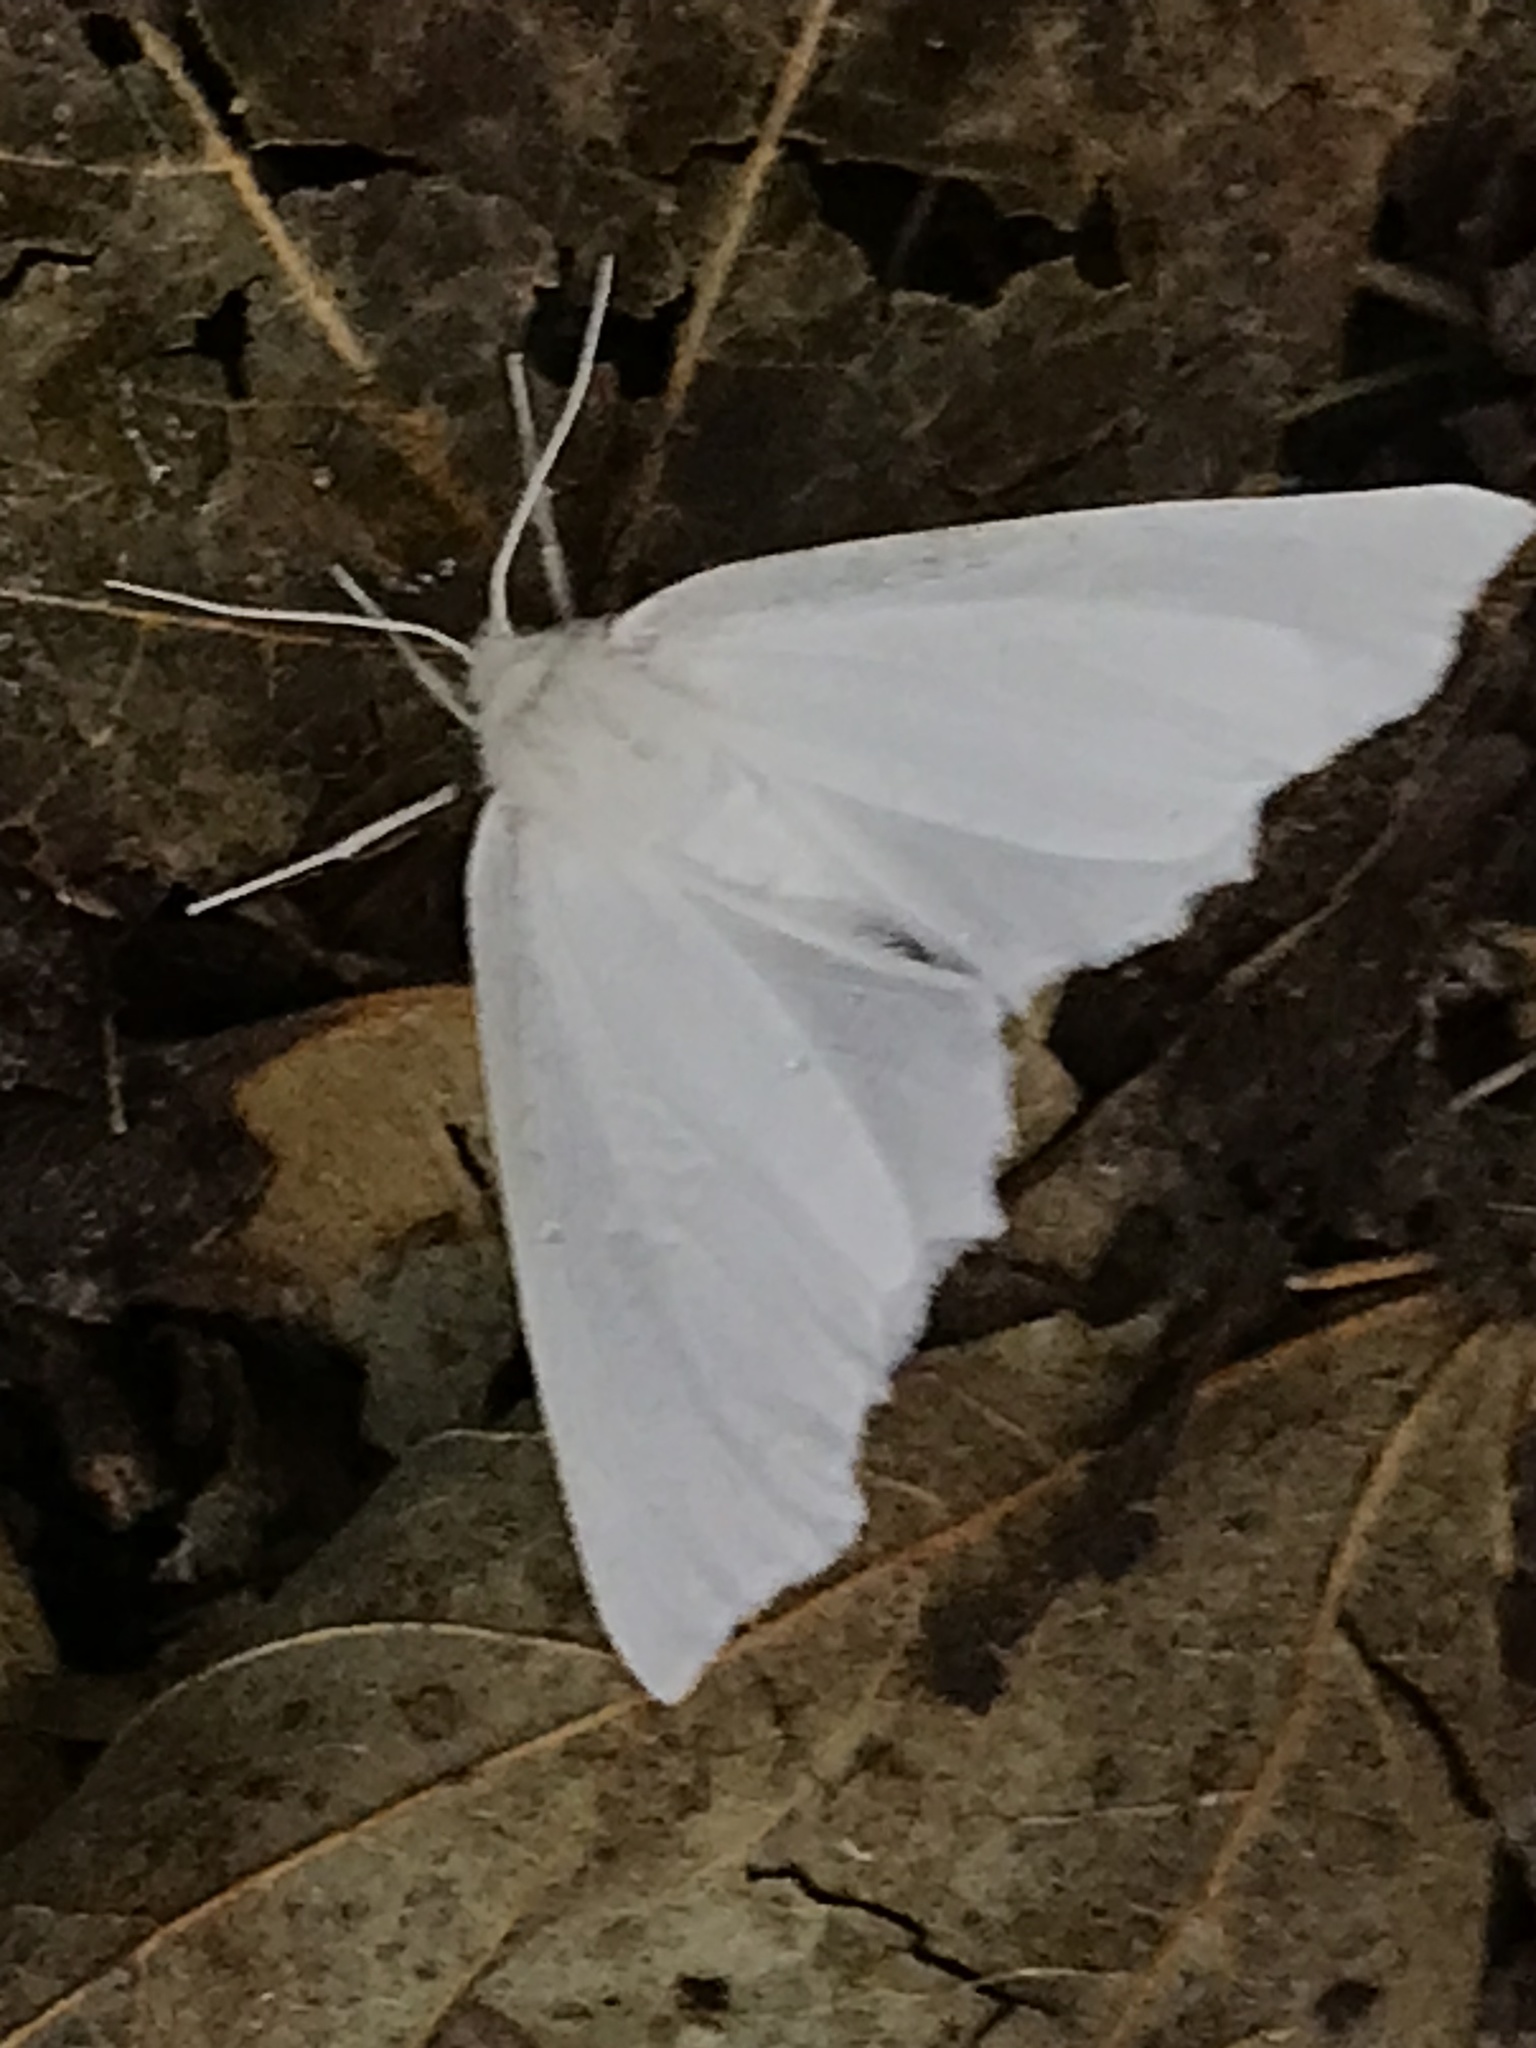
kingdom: Animalia
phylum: Arthropoda
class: Insecta
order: Lepidoptera
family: Geometridae
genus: Ennomos
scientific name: Ennomos subsignaria
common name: Elm spanworm
